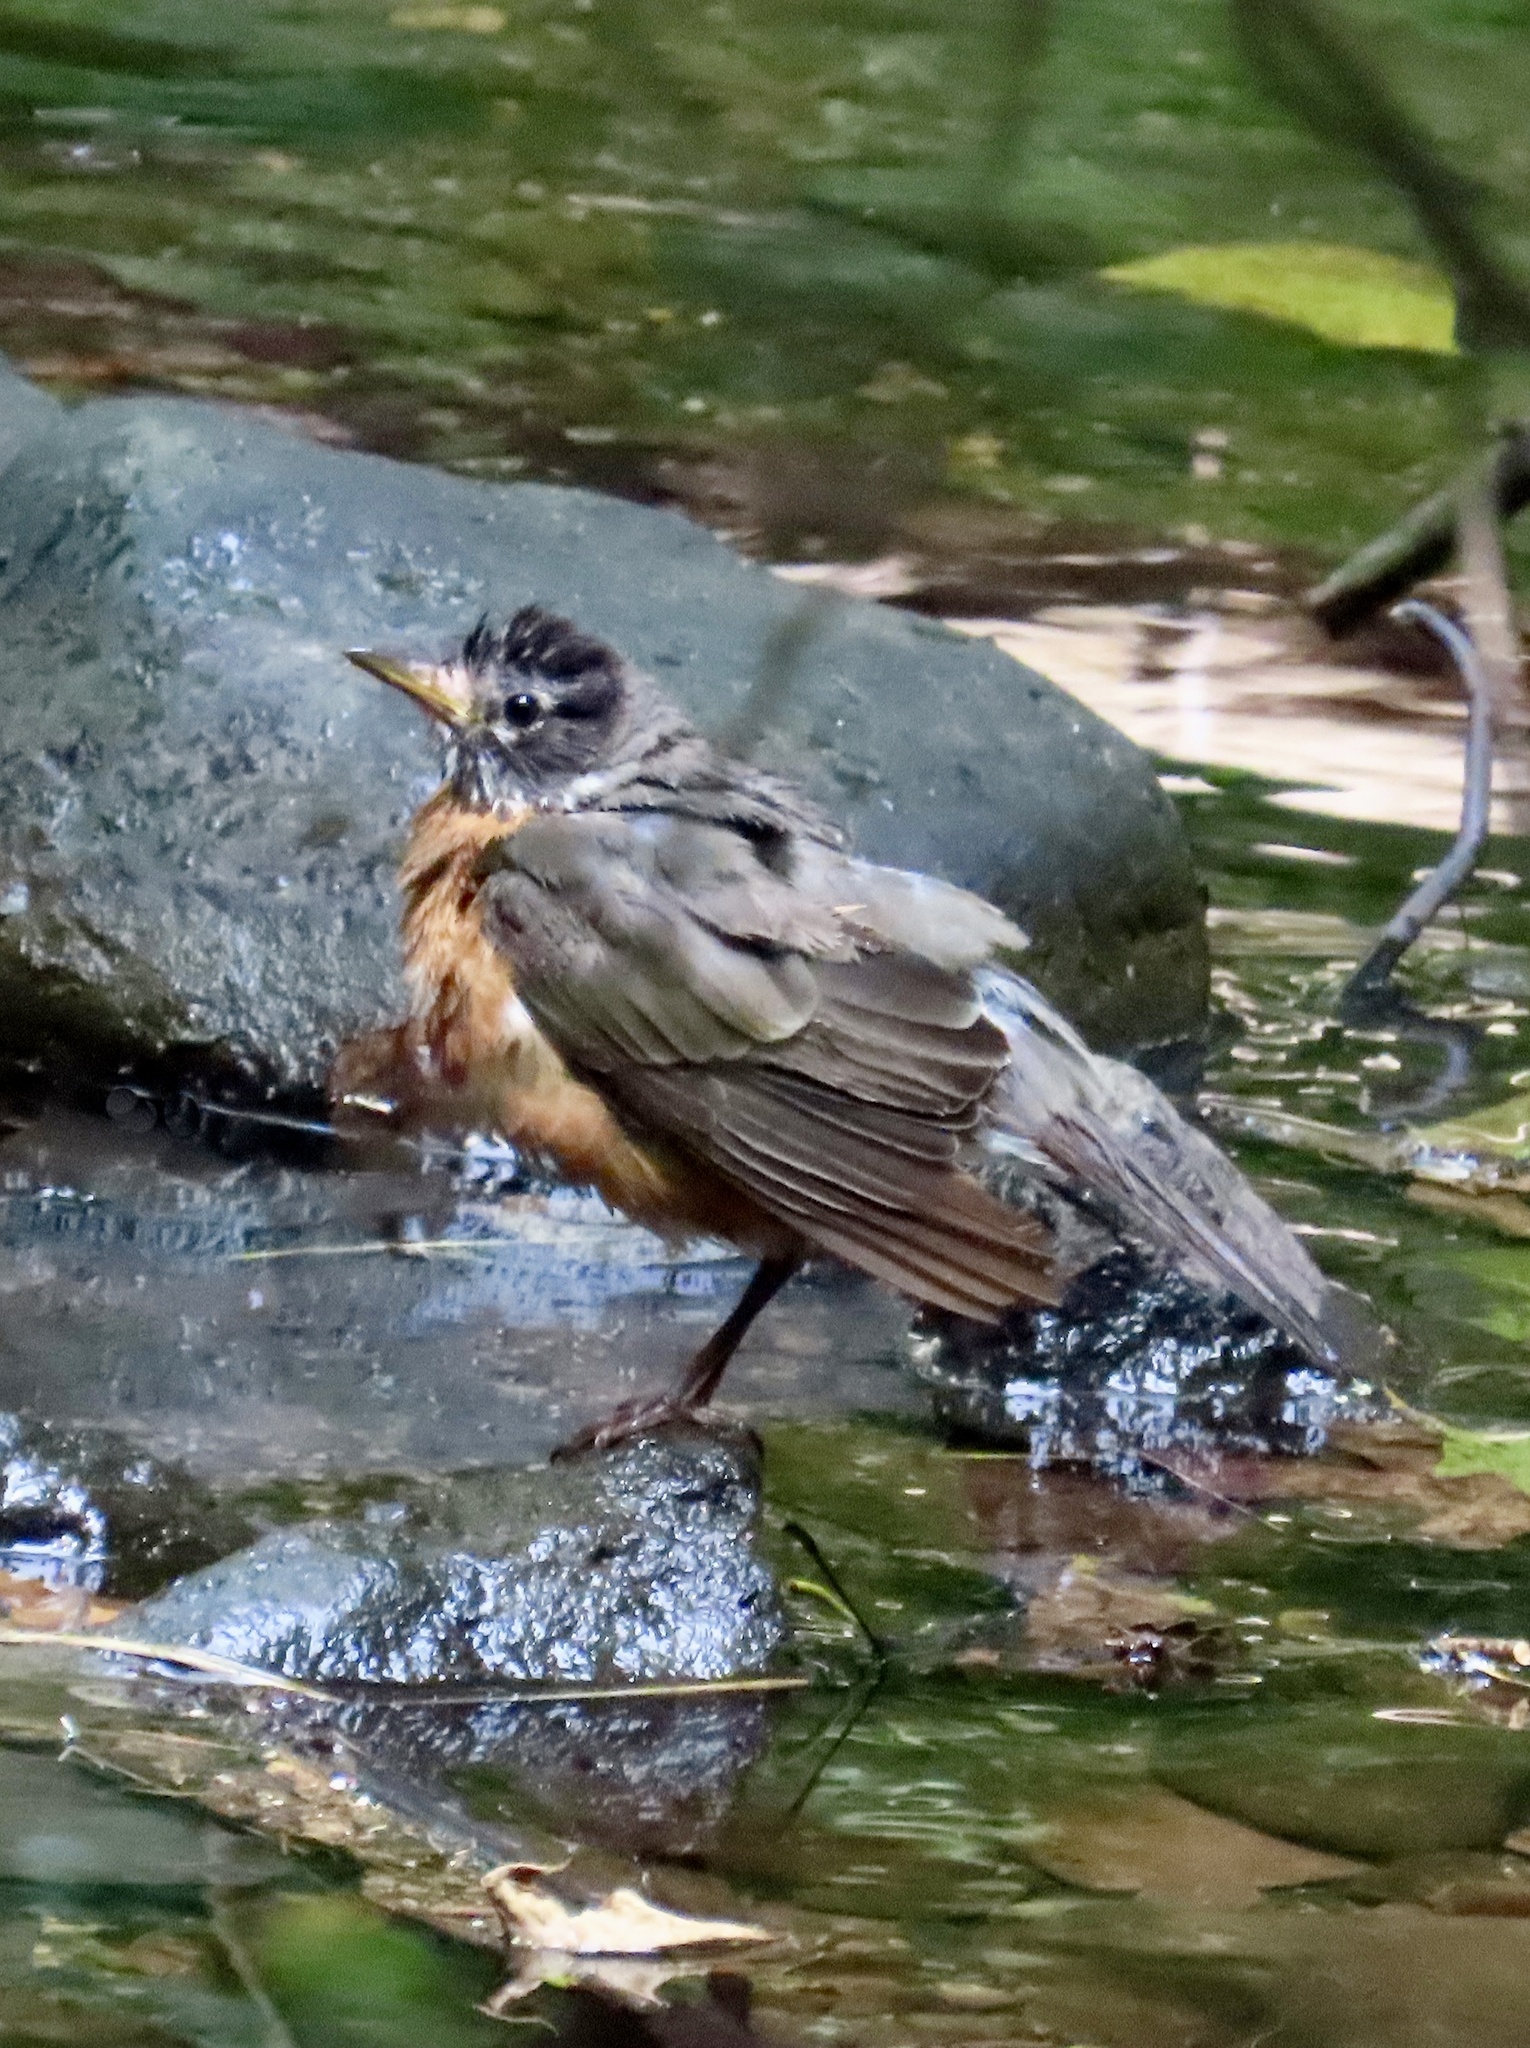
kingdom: Animalia
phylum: Chordata
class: Aves
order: Passeriformes
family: Turdidae
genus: Turdus
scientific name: Turdus migratorius
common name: American robin
